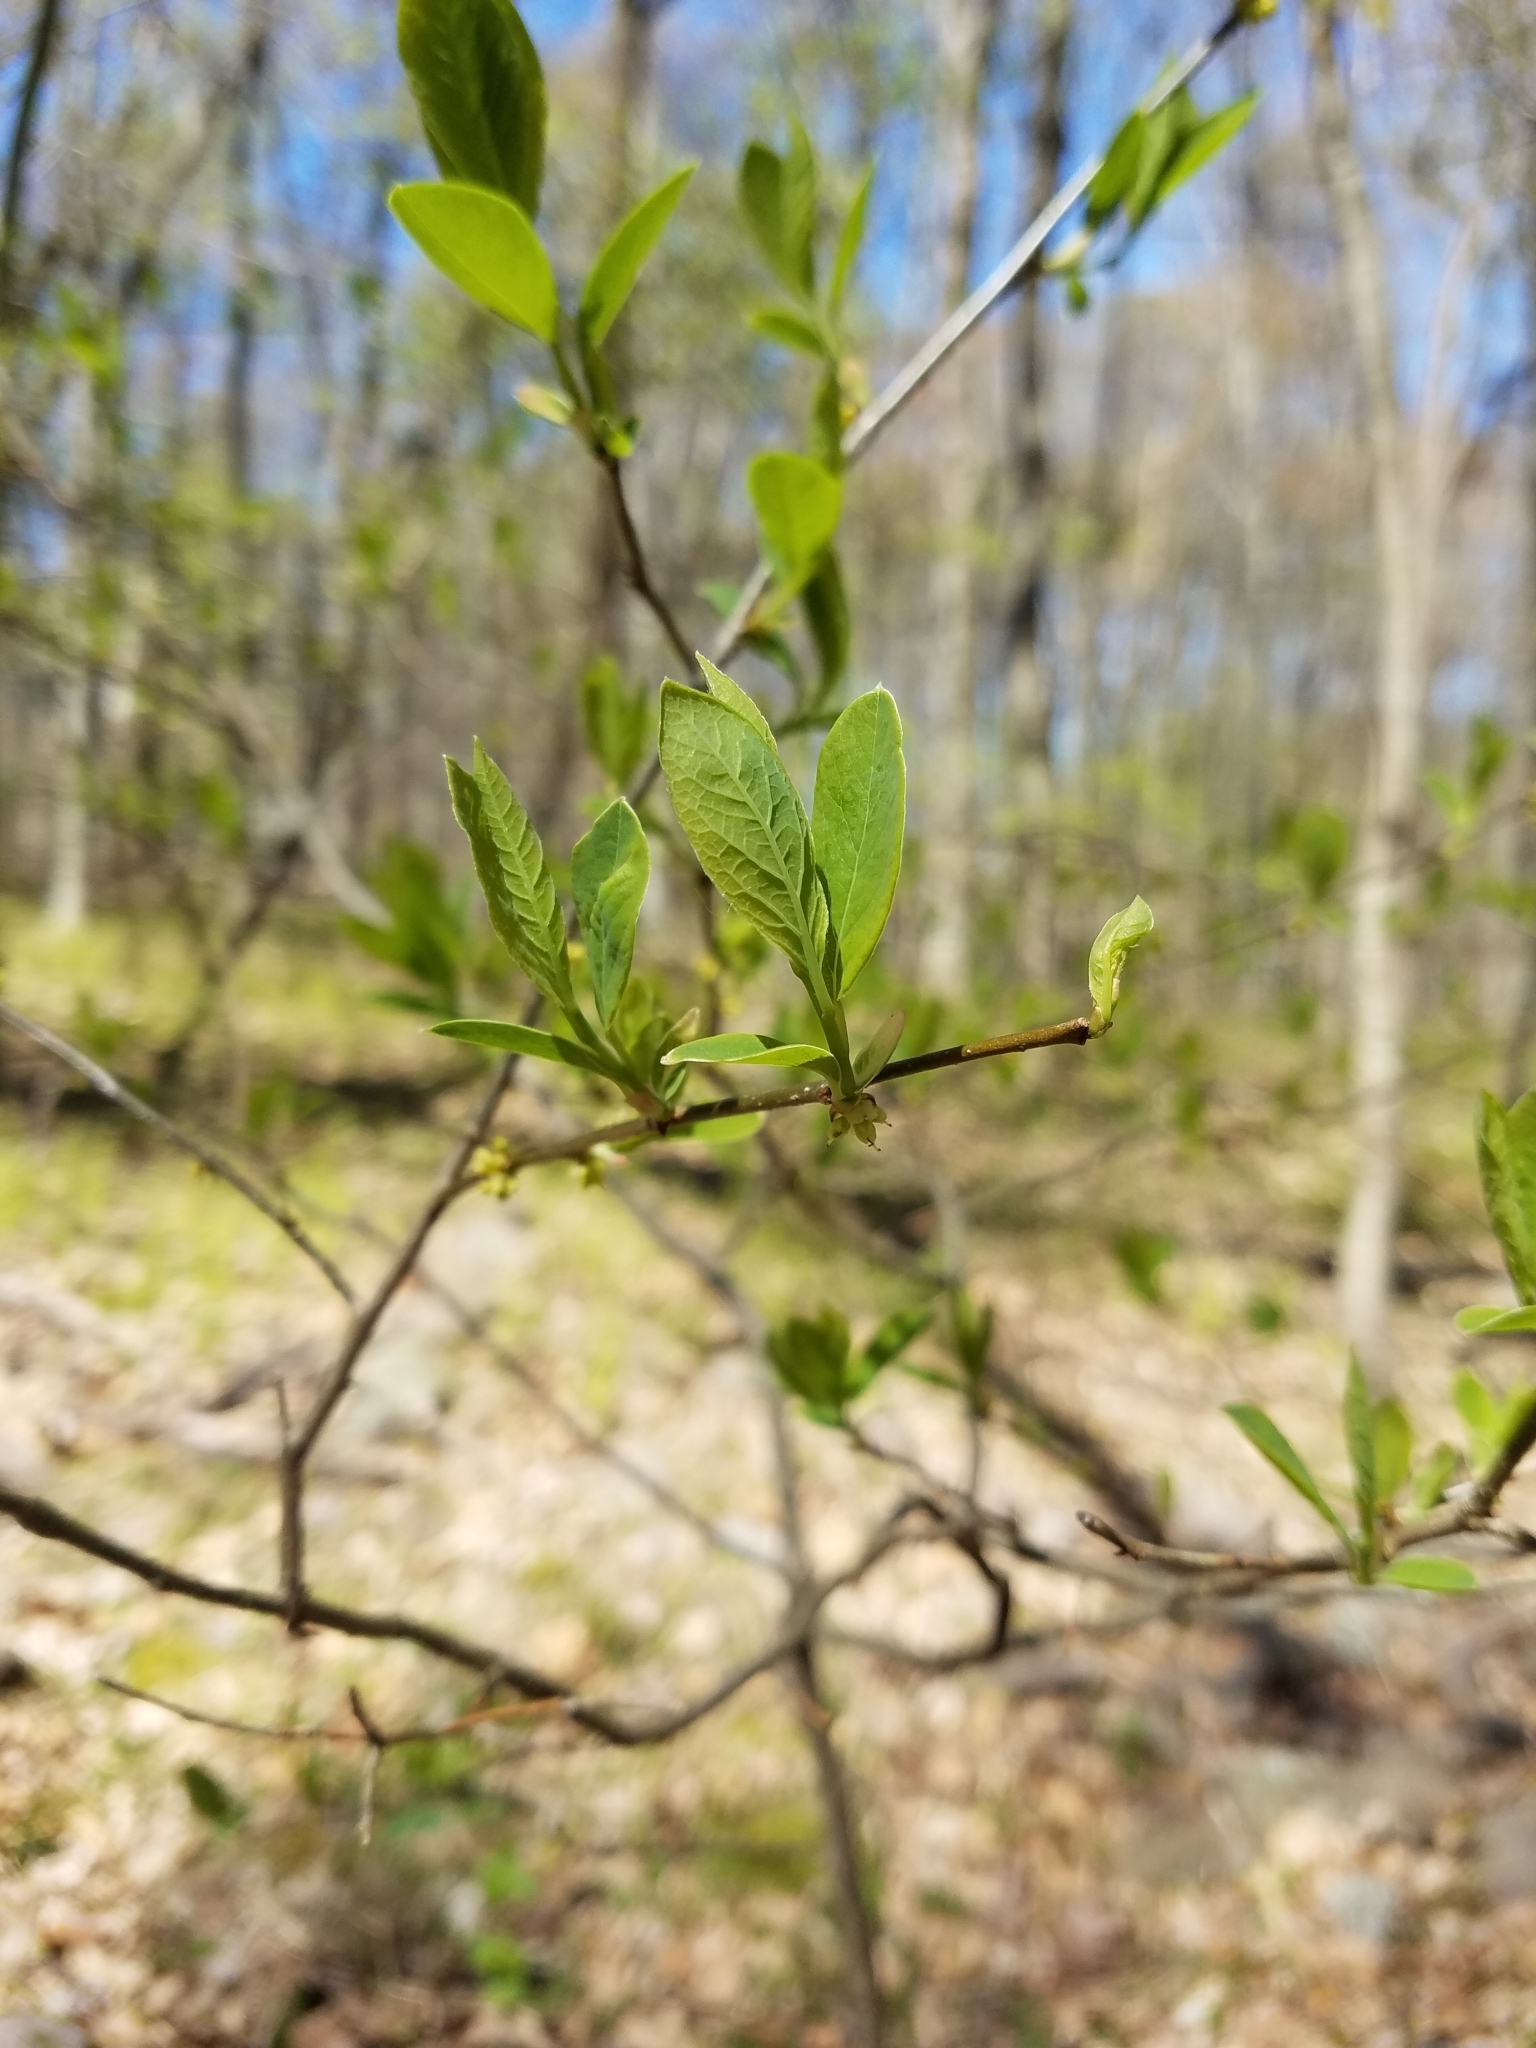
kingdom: Plantae
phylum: Tracheophyta
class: Magnoliopsida
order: Laurales
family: Lauraceae
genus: Lindera
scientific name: Lindera benzoin
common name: Spicebush
